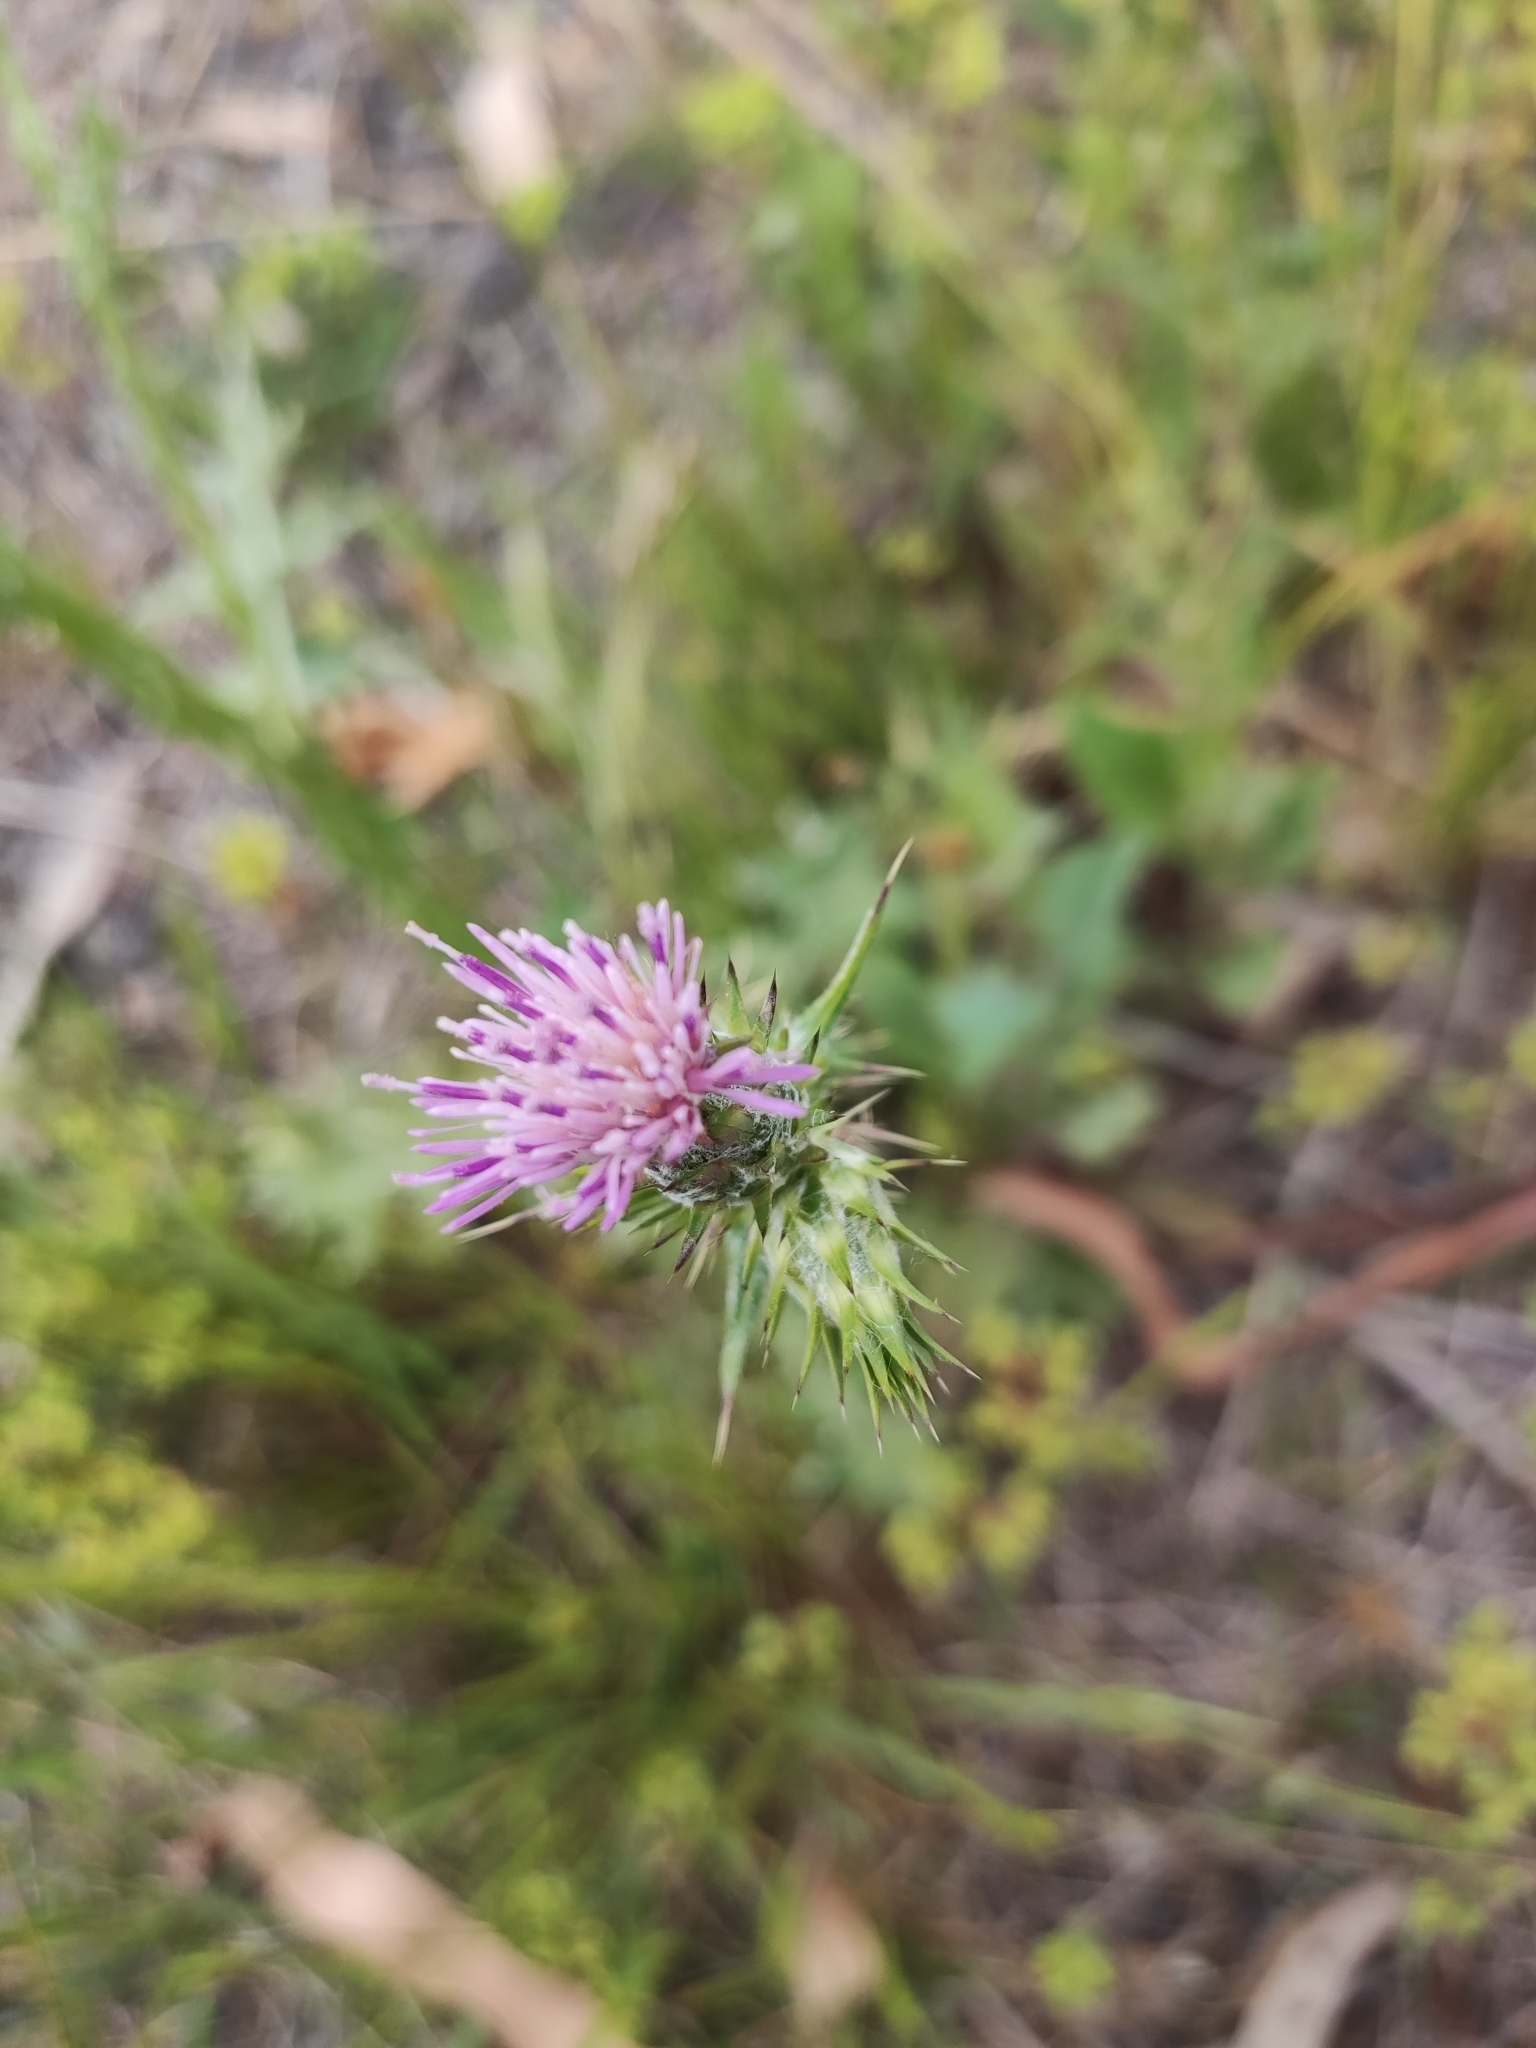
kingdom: Plantae
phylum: Tracheophyta
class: Magnoliopsida
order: Asterales
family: Asteraceae
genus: Carduus
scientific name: Carduus
